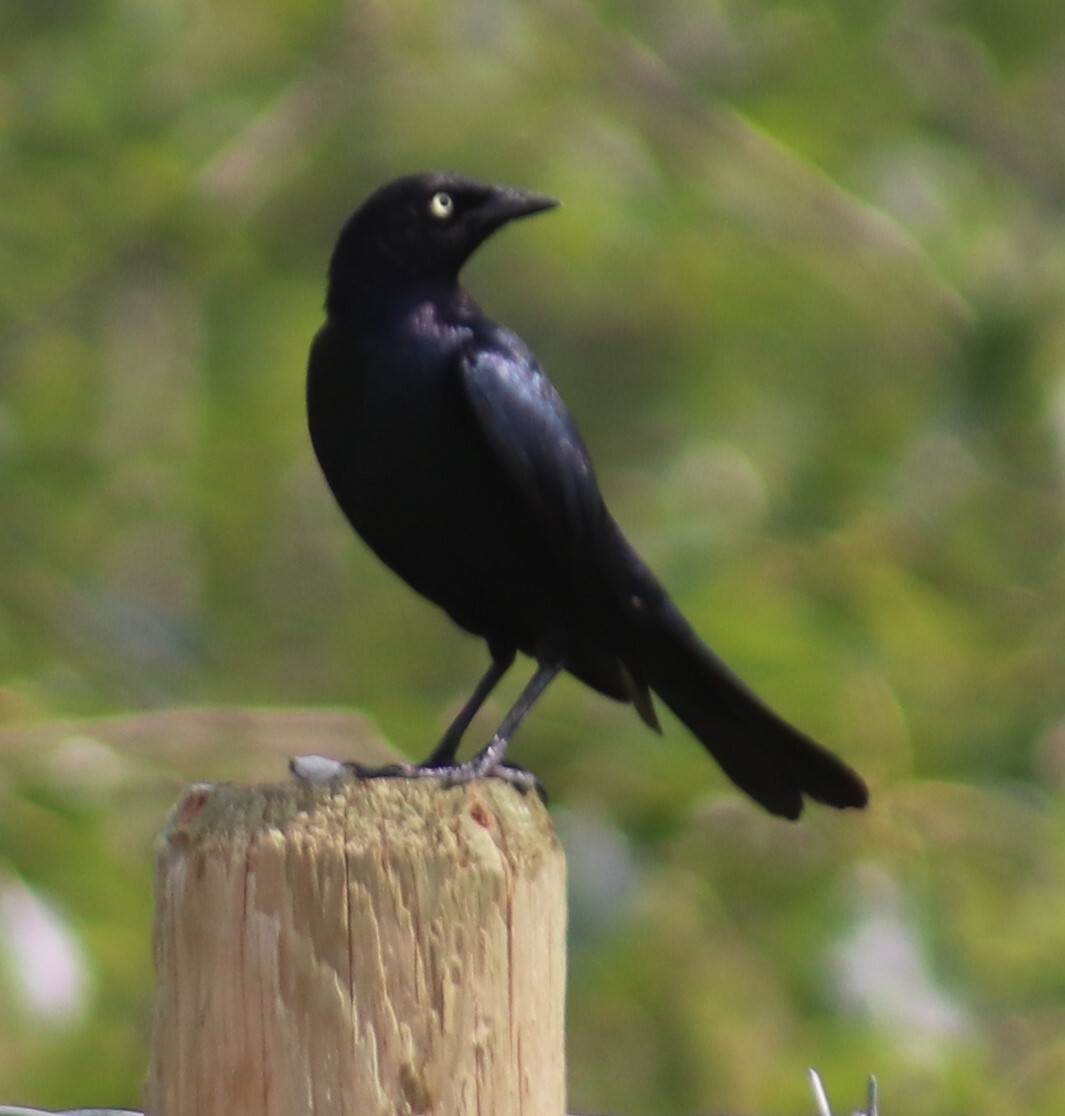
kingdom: Animalia
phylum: Chordata
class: Aves
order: Passeriformes
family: Icteridae
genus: Euphagus
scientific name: Euphagus cyanocephalus
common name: Brewer's blackbird
